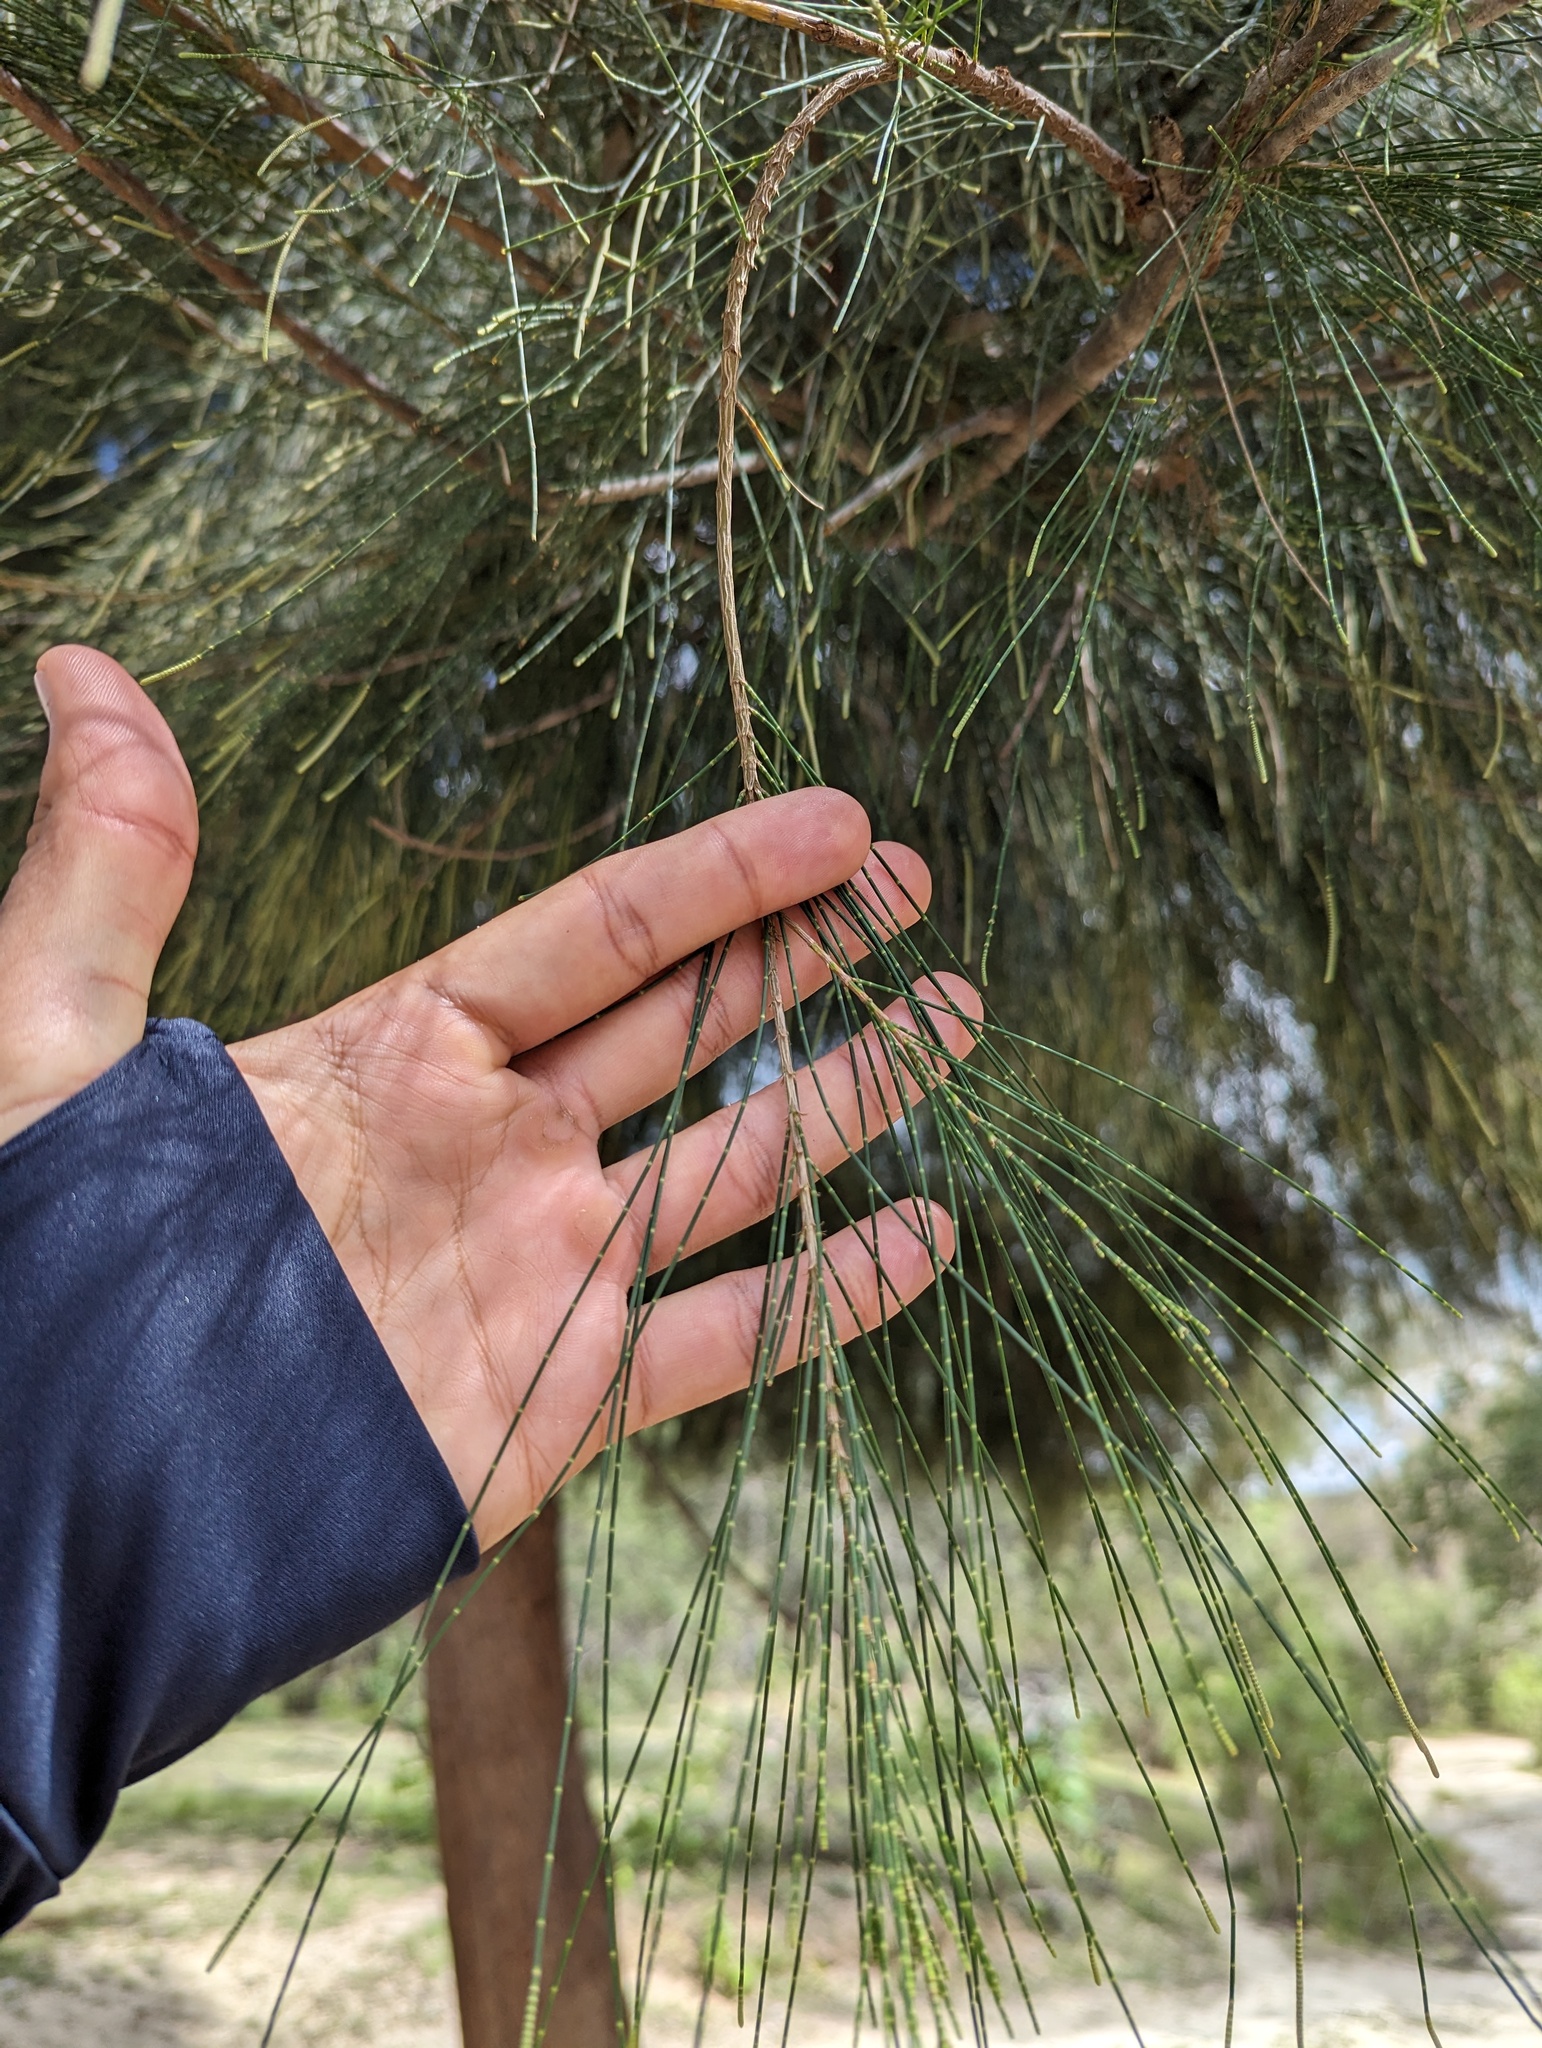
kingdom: Plantae
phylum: Tracheophyta
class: Magnoliopsida
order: Fagales
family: Casuarinaceae
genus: Casuarina
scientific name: Casuarina equisetifolia
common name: Beach sheoak
